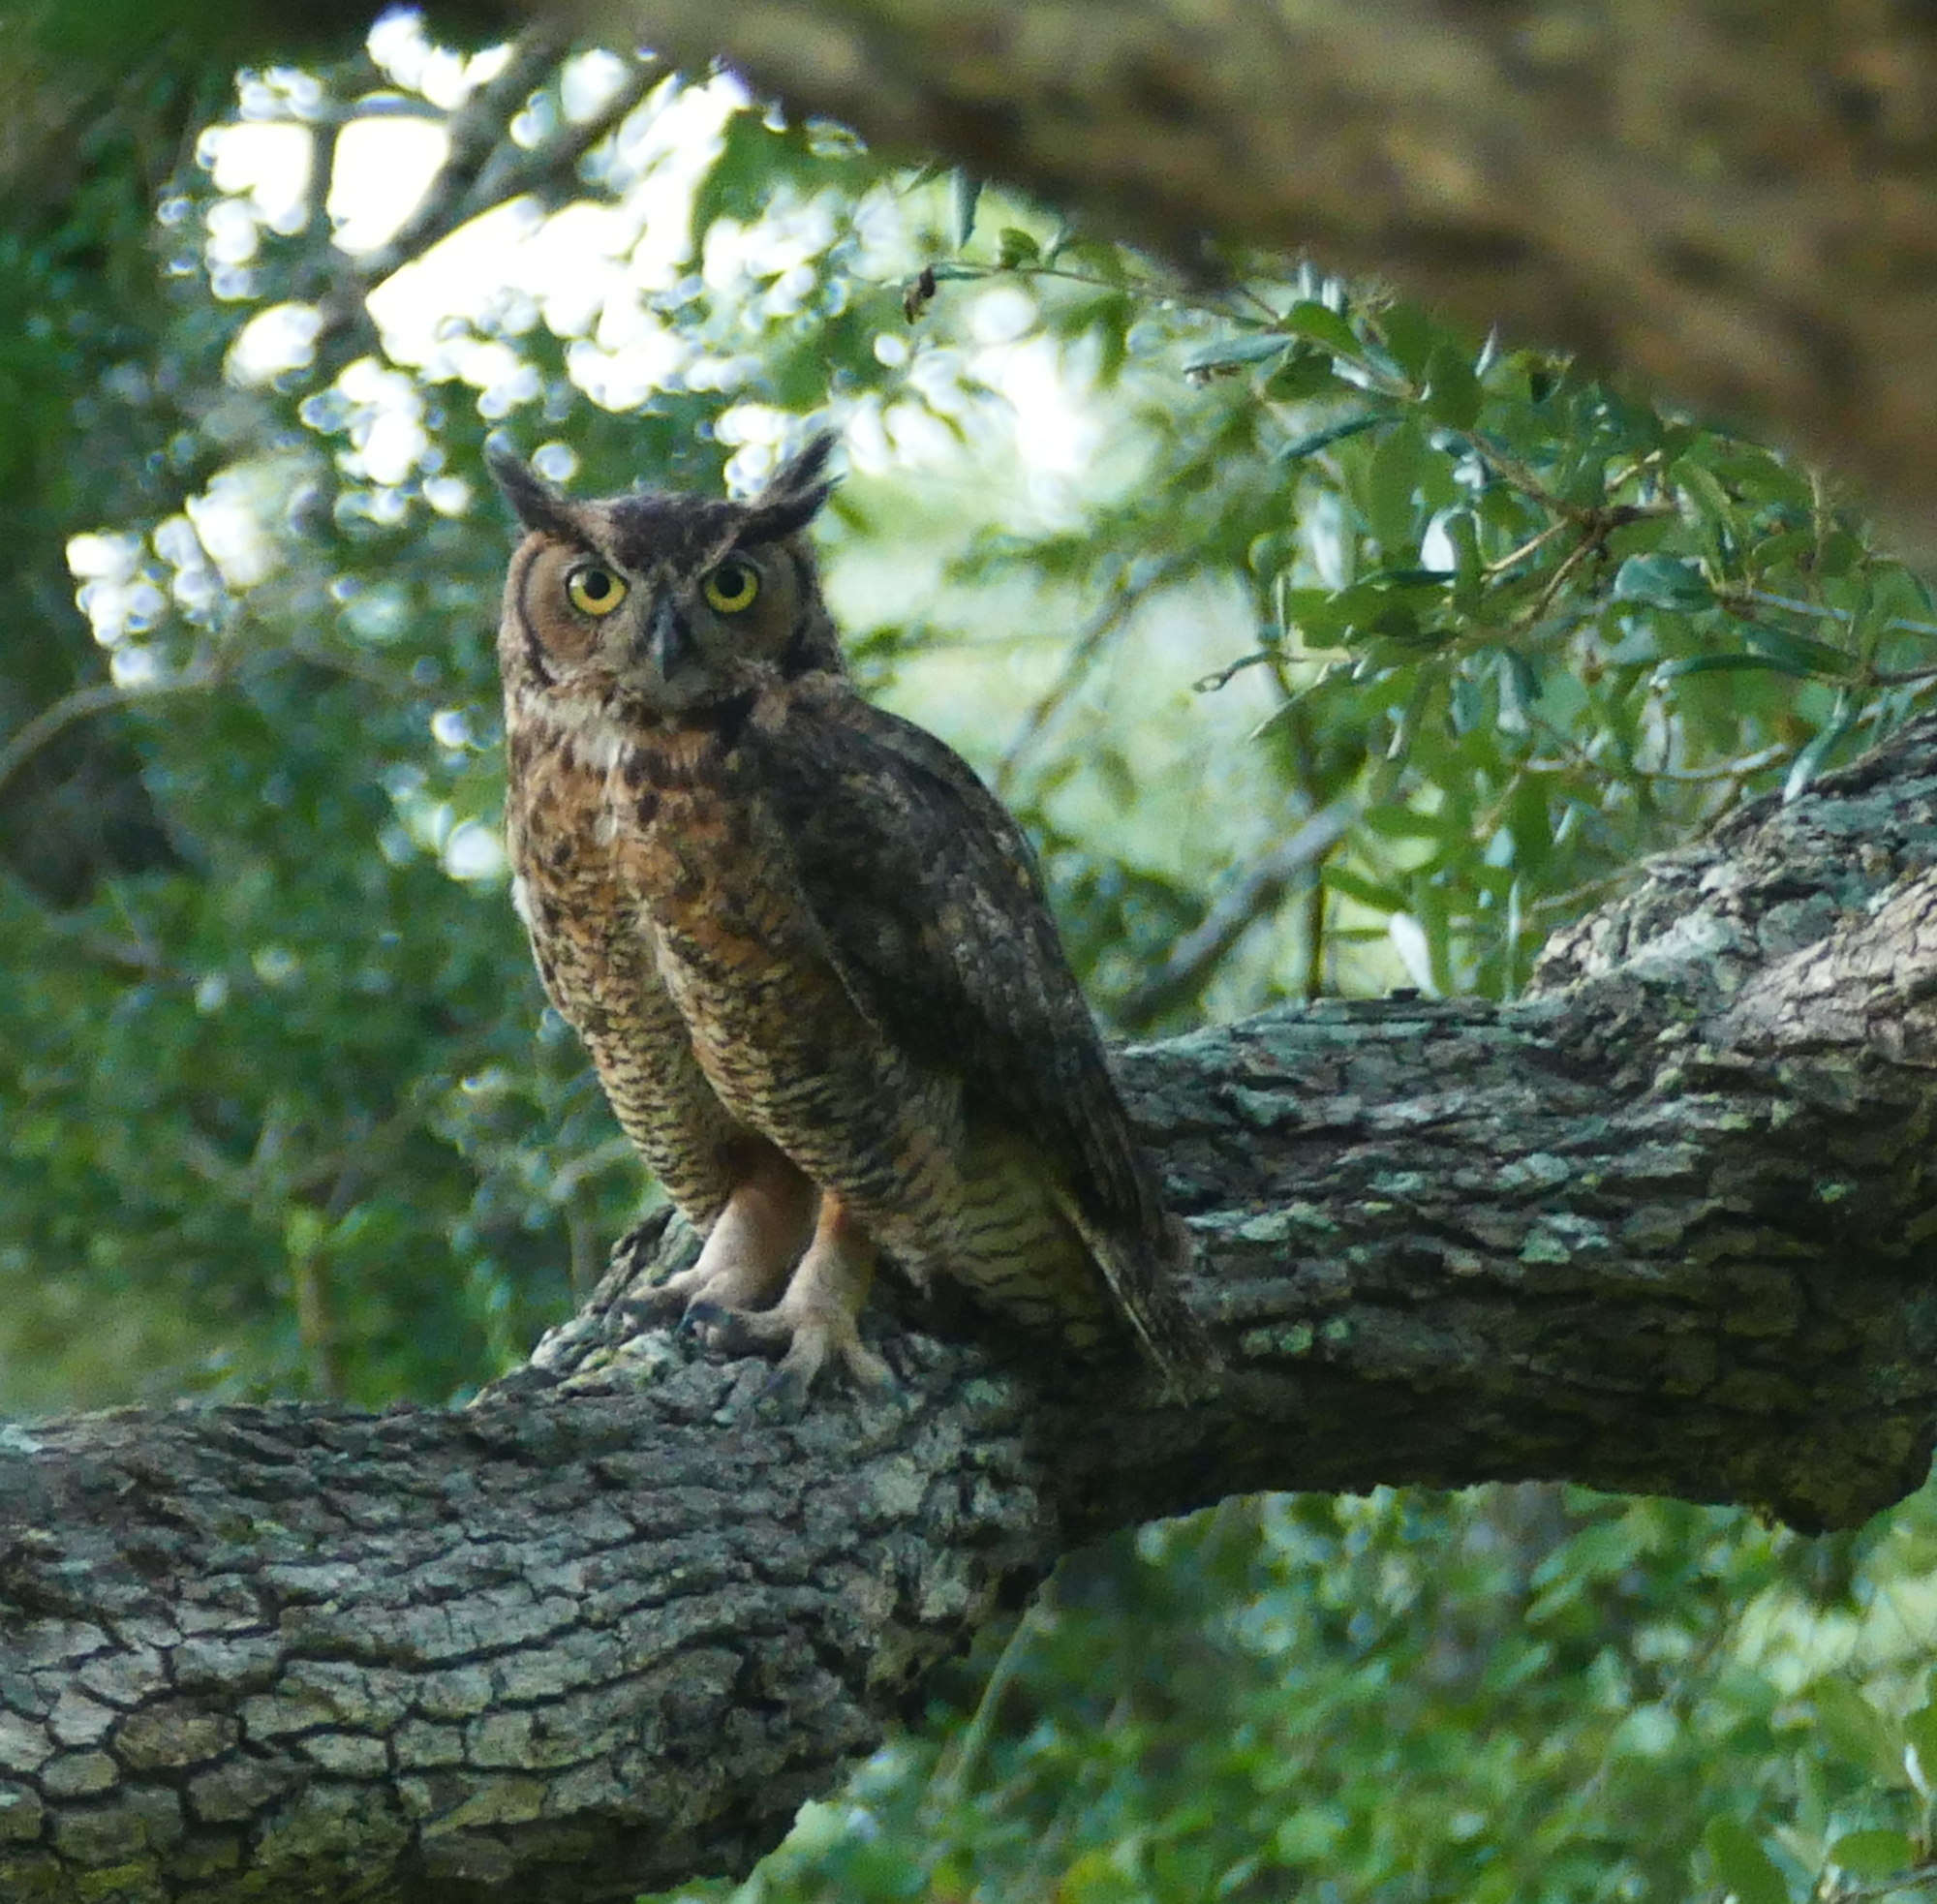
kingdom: Animalia
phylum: Chordata
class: Aves
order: Strigiformes
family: Strigidae
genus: Bubo
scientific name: Bubo virginianus
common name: Great horned owl
